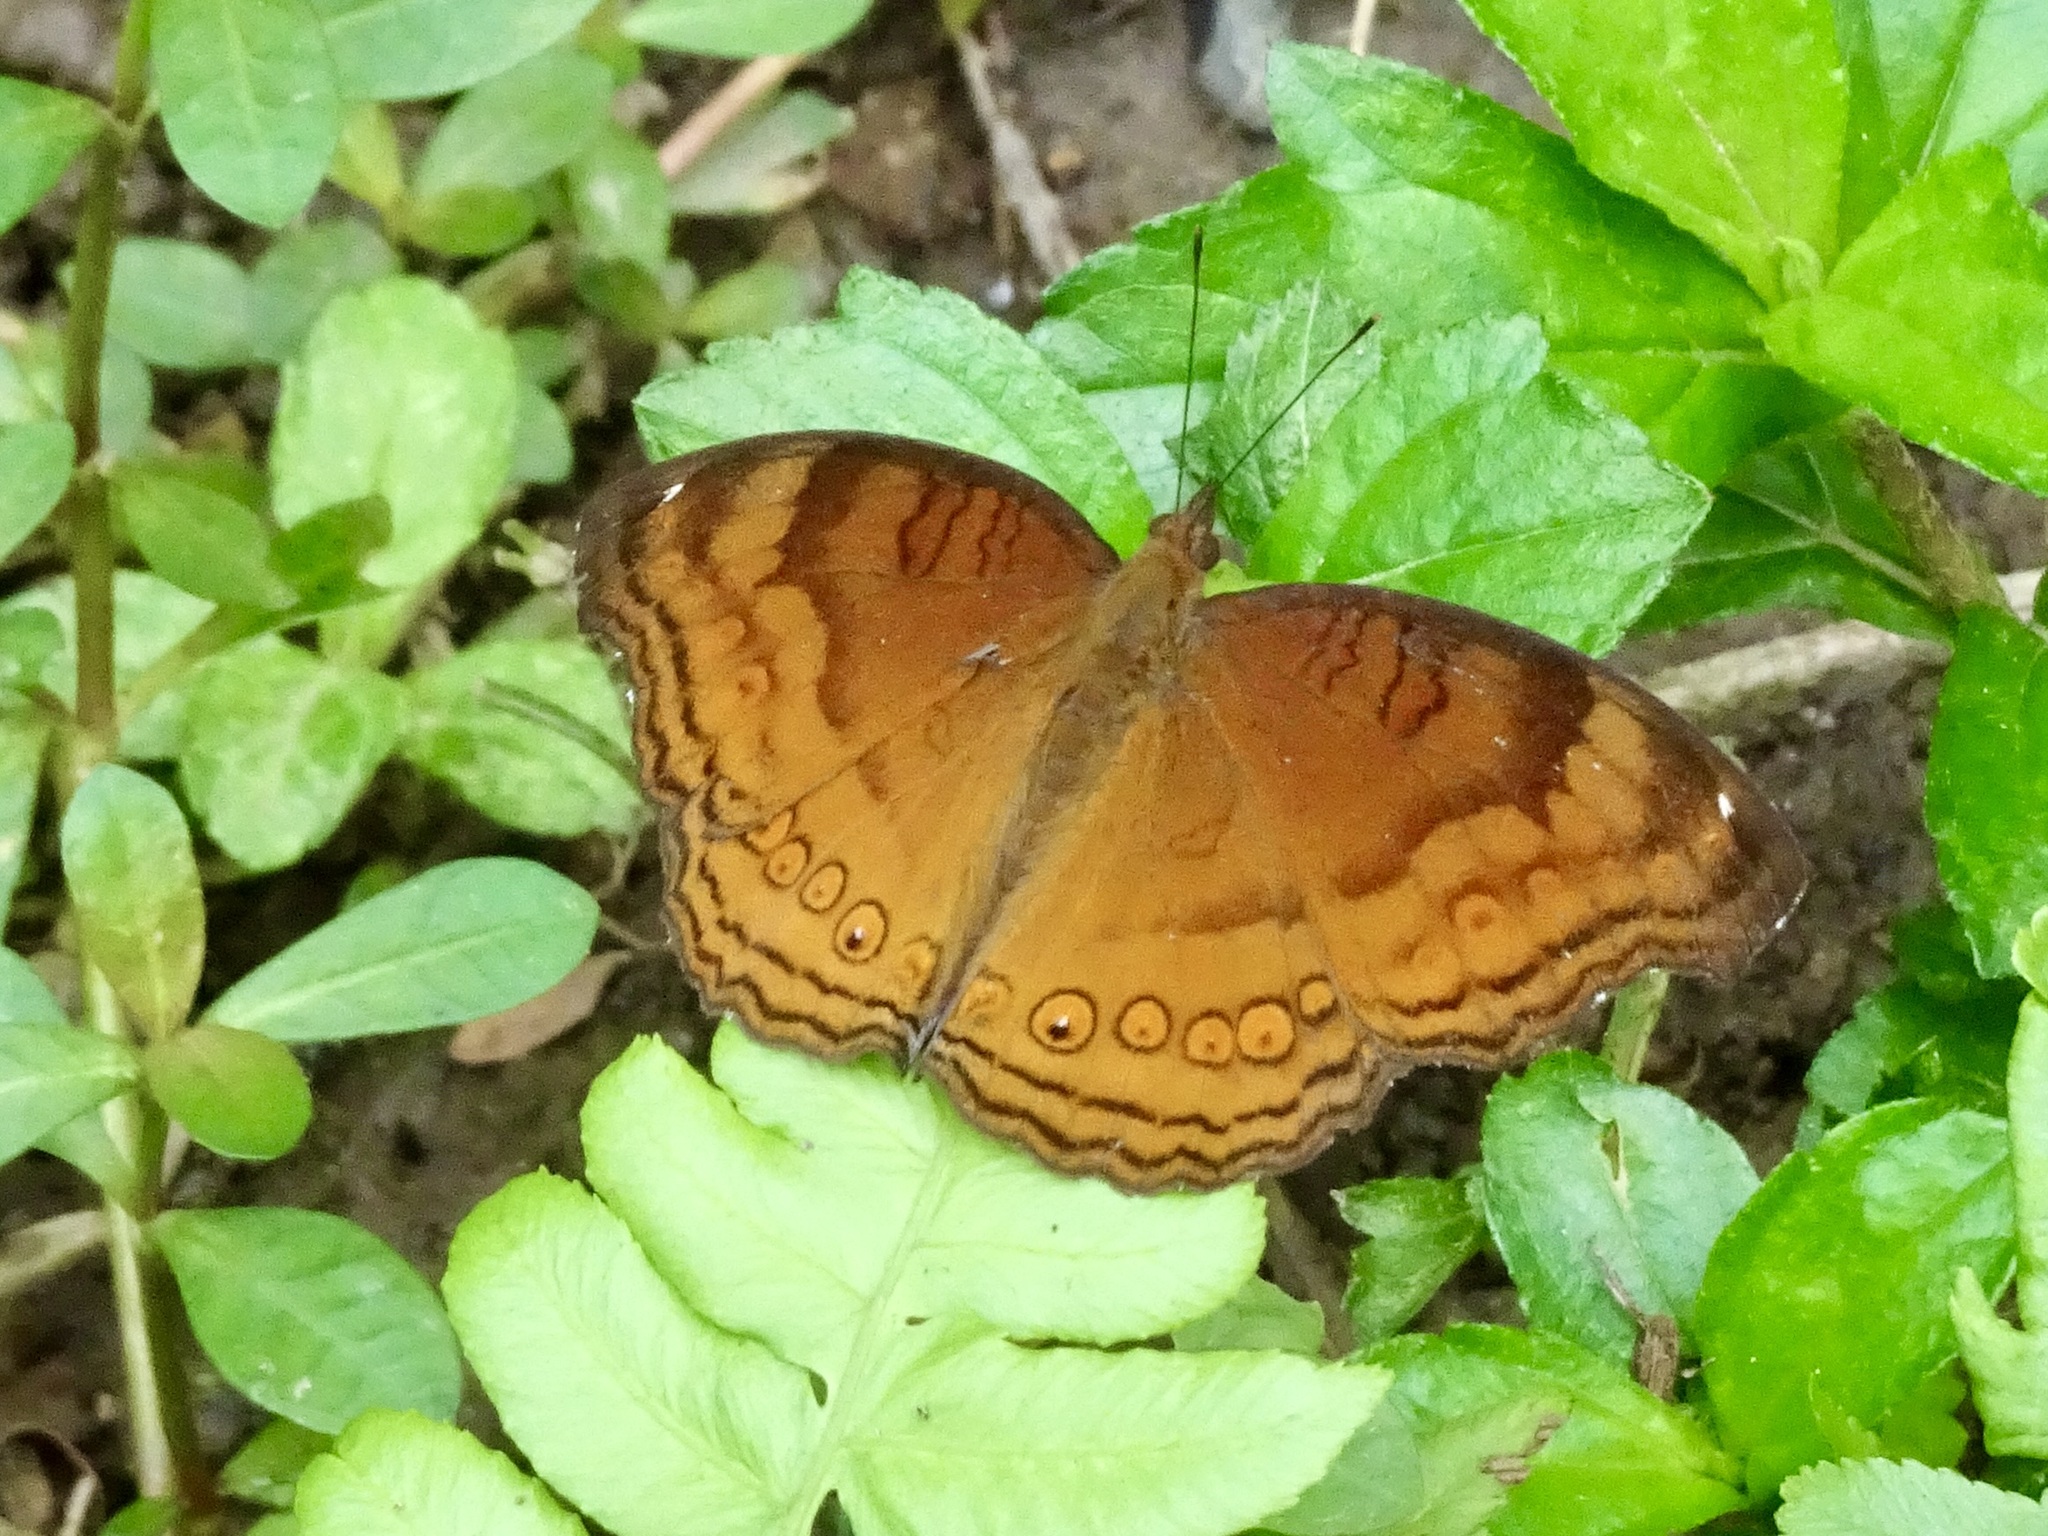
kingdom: Animalia
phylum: Arthropoda
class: Insecta
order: Lepidoptera
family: Nymphalidae
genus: Junonia
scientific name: Junonia hedonia
